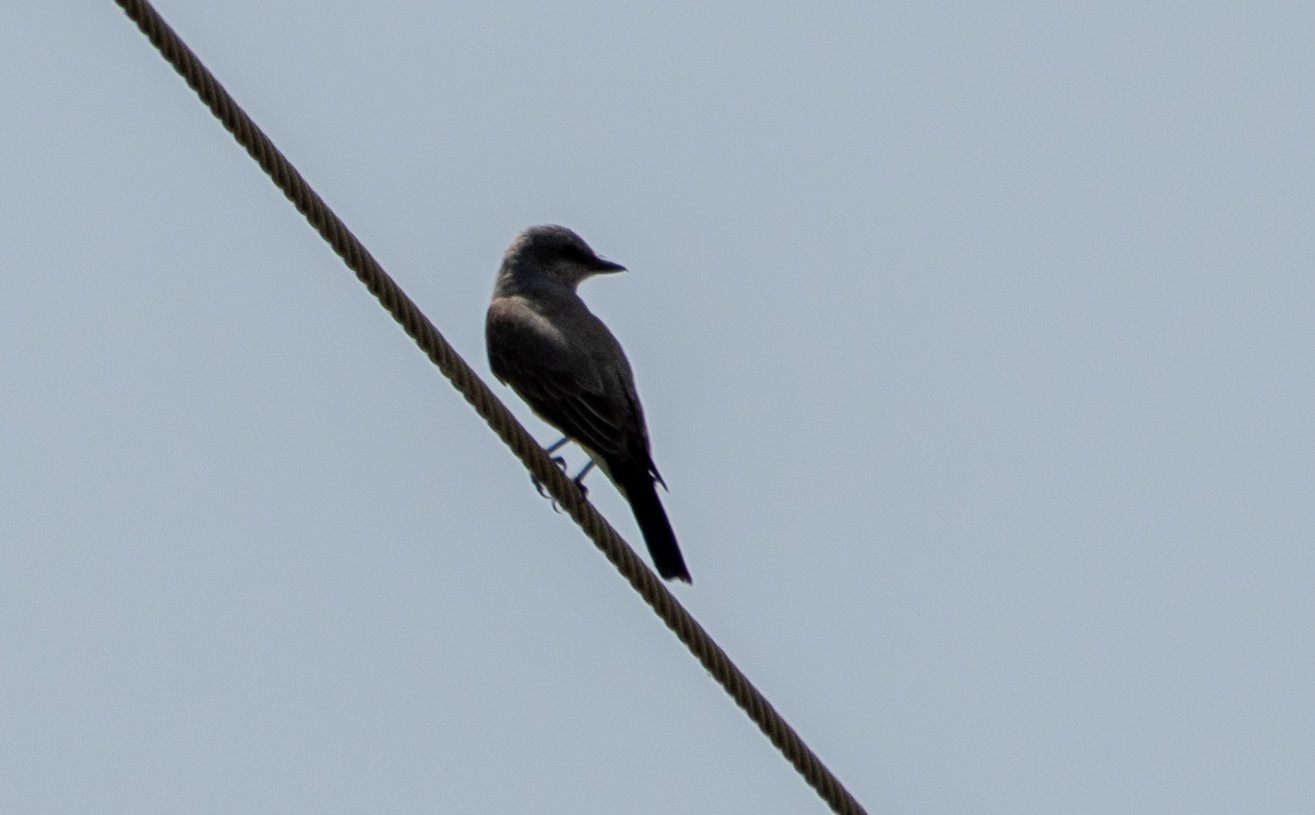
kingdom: Animalia
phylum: Chordata
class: Aves
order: Passeriformes
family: Tyrannidae
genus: Tyrannus
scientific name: Tyrannus verticalis
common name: Western kingbird
